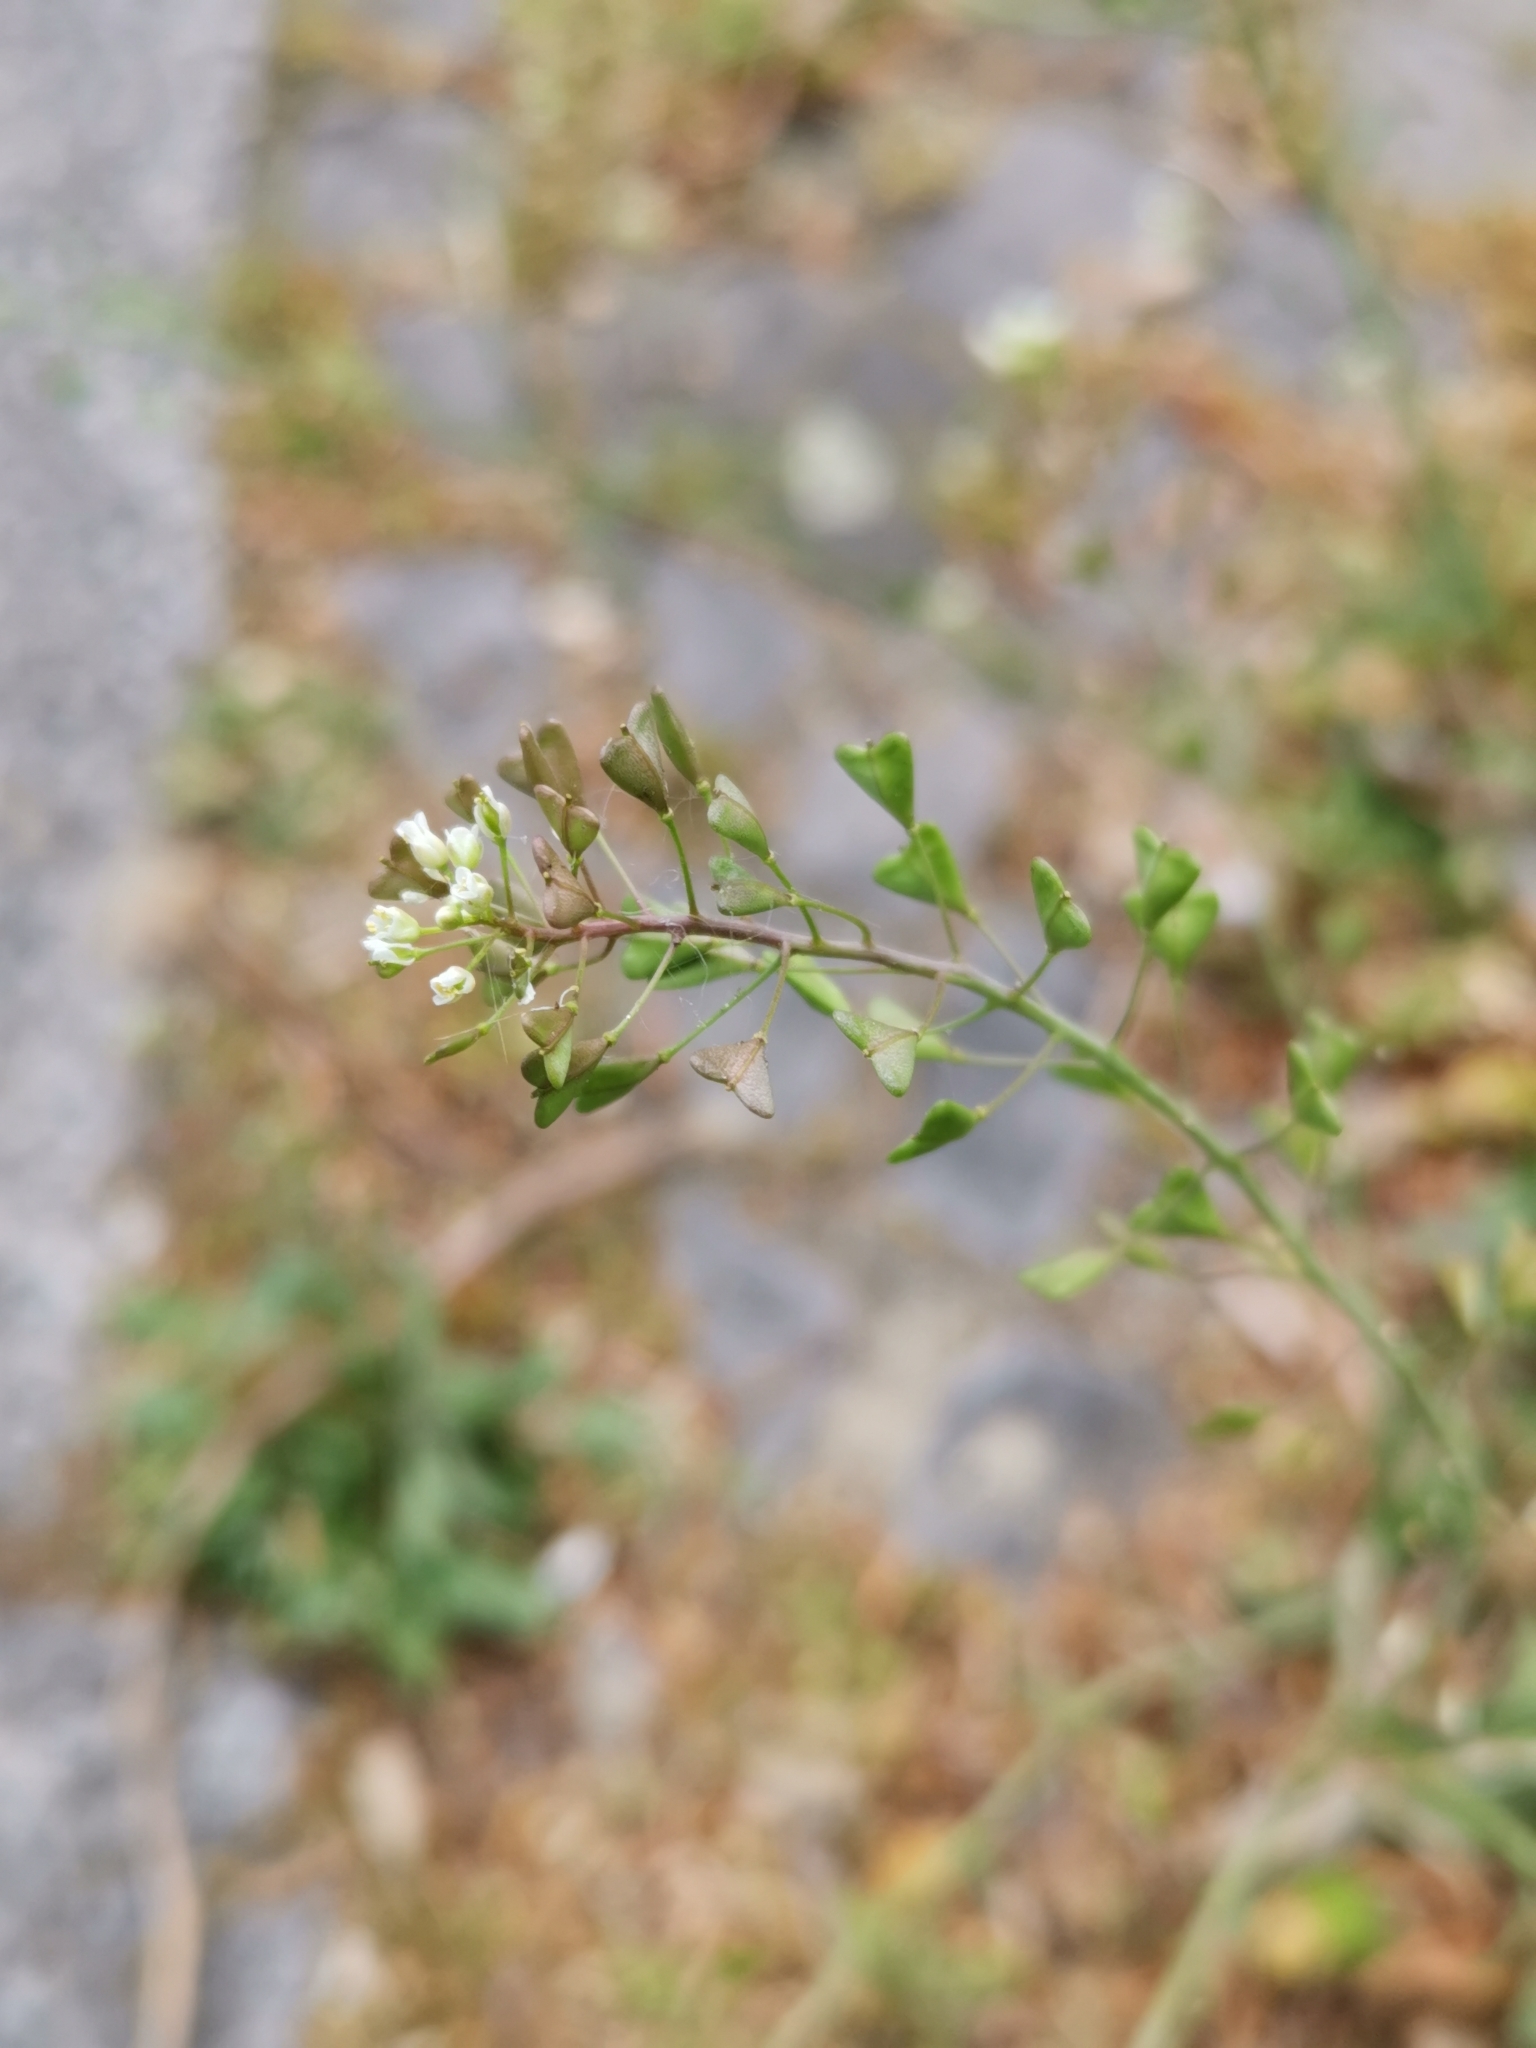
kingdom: Plantae
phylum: Tracheophyta
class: Magnoliopsida
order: Brassicales
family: Brassicaceae
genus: Capsella
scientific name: Capsella bursa-pastoris
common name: Shepherd's purse
